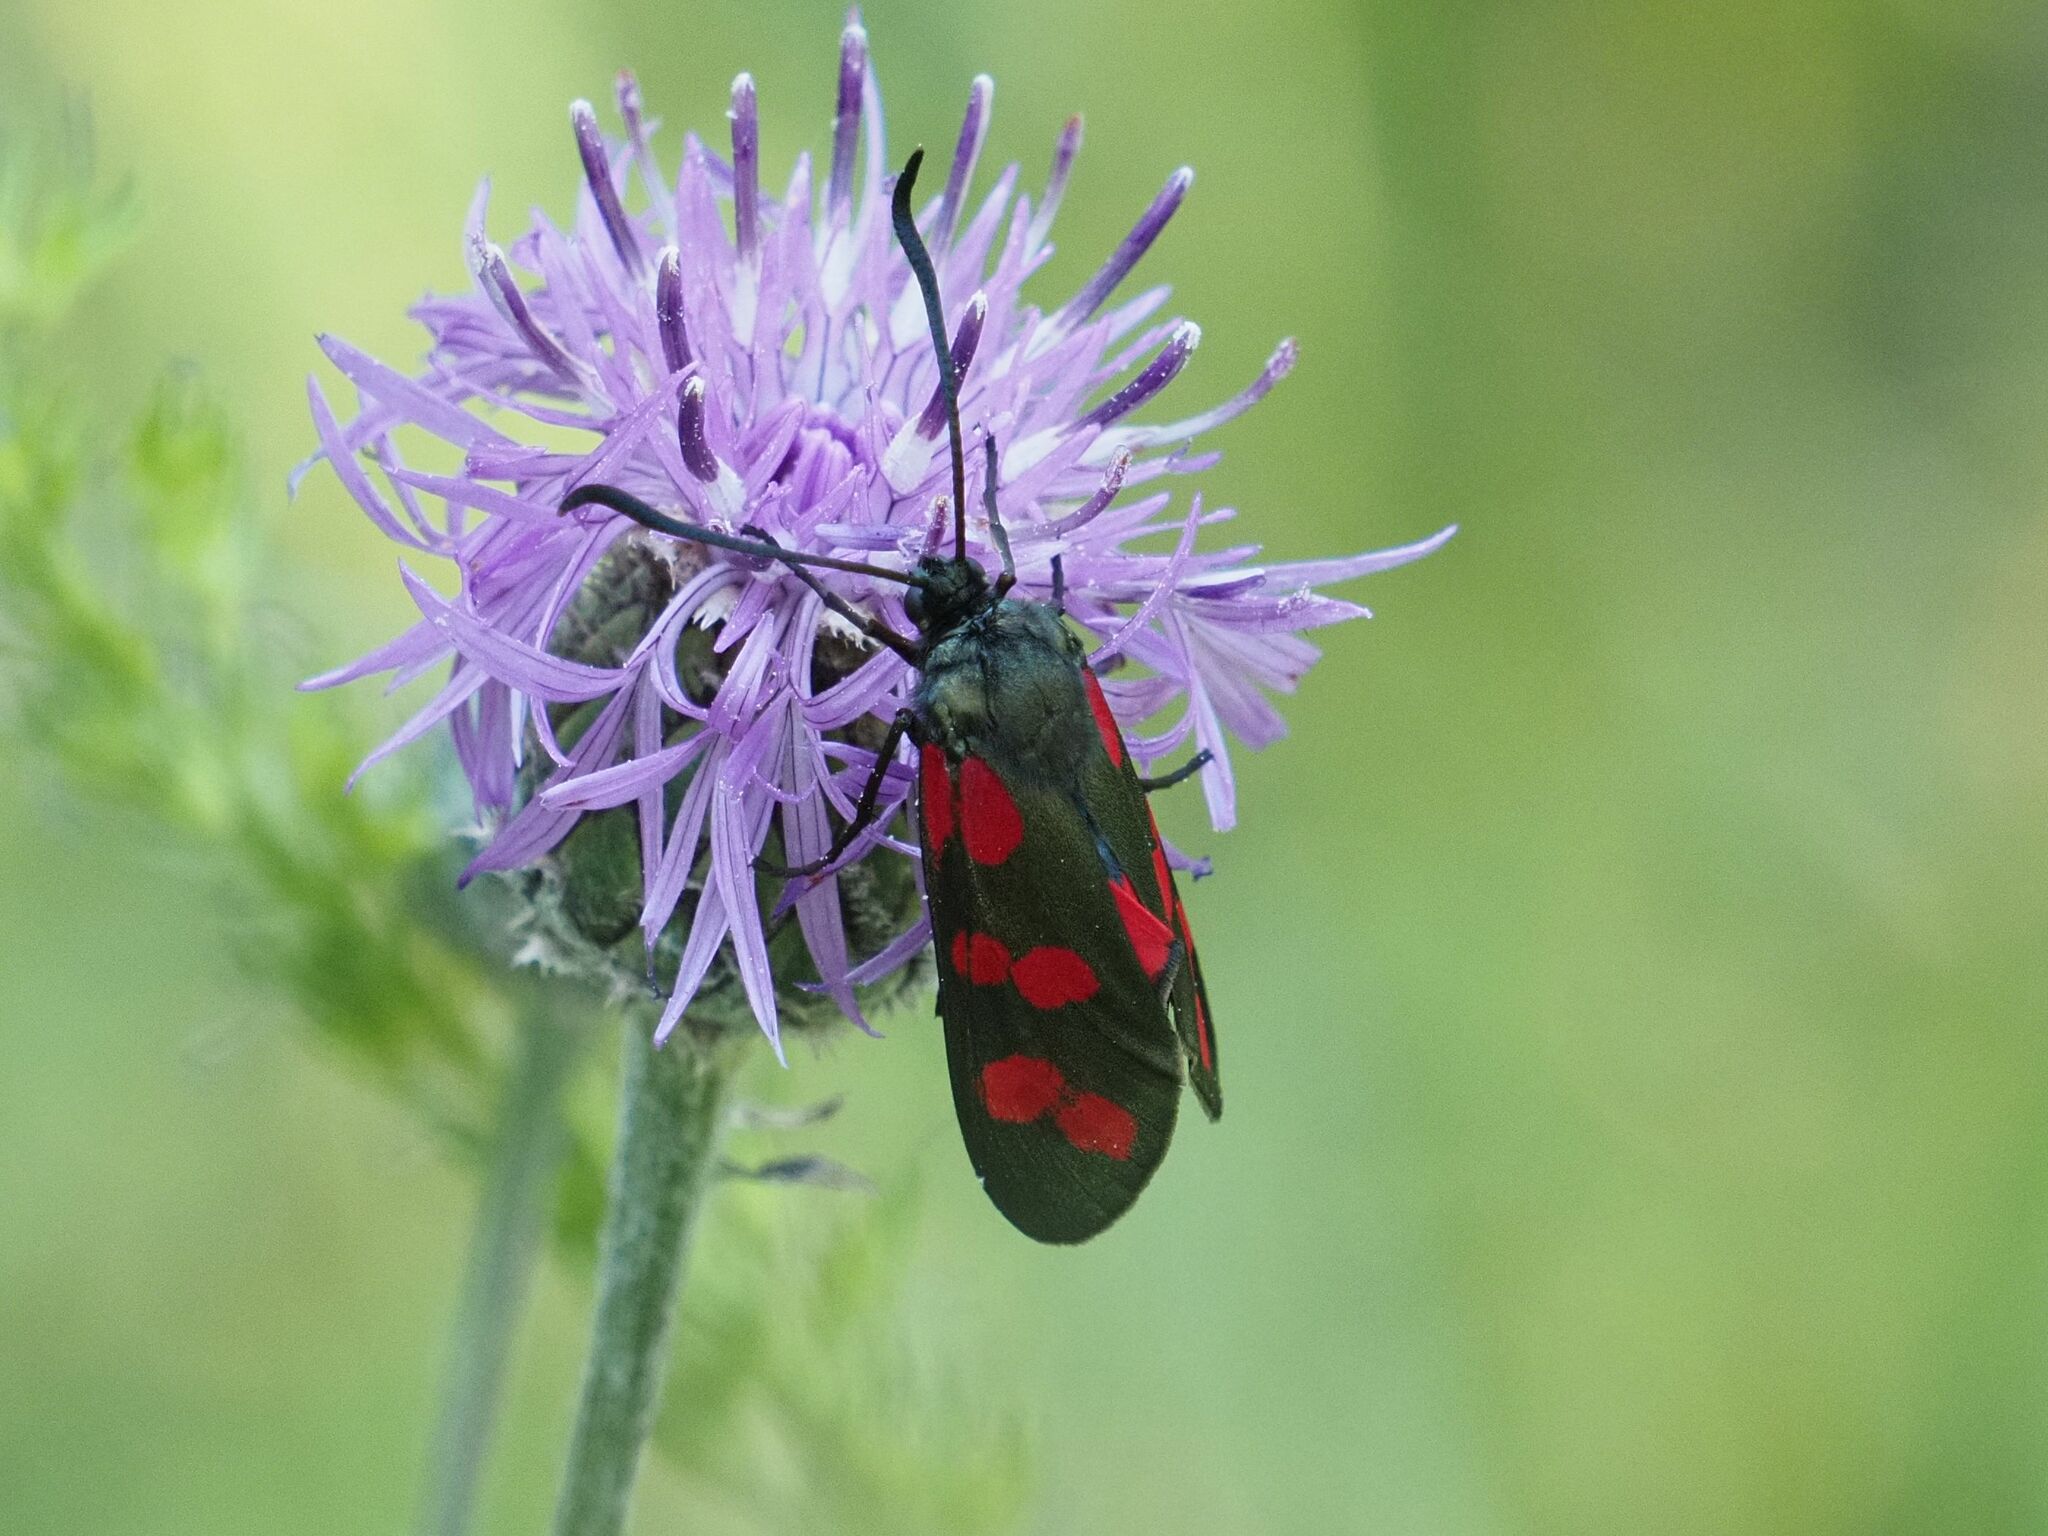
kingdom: Animalia
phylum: Arthropoda
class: Insecta
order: Lepidoptera
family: Zygaenidae
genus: Zygaena
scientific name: Zygaena filipendulae
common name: Six-spot burnet
